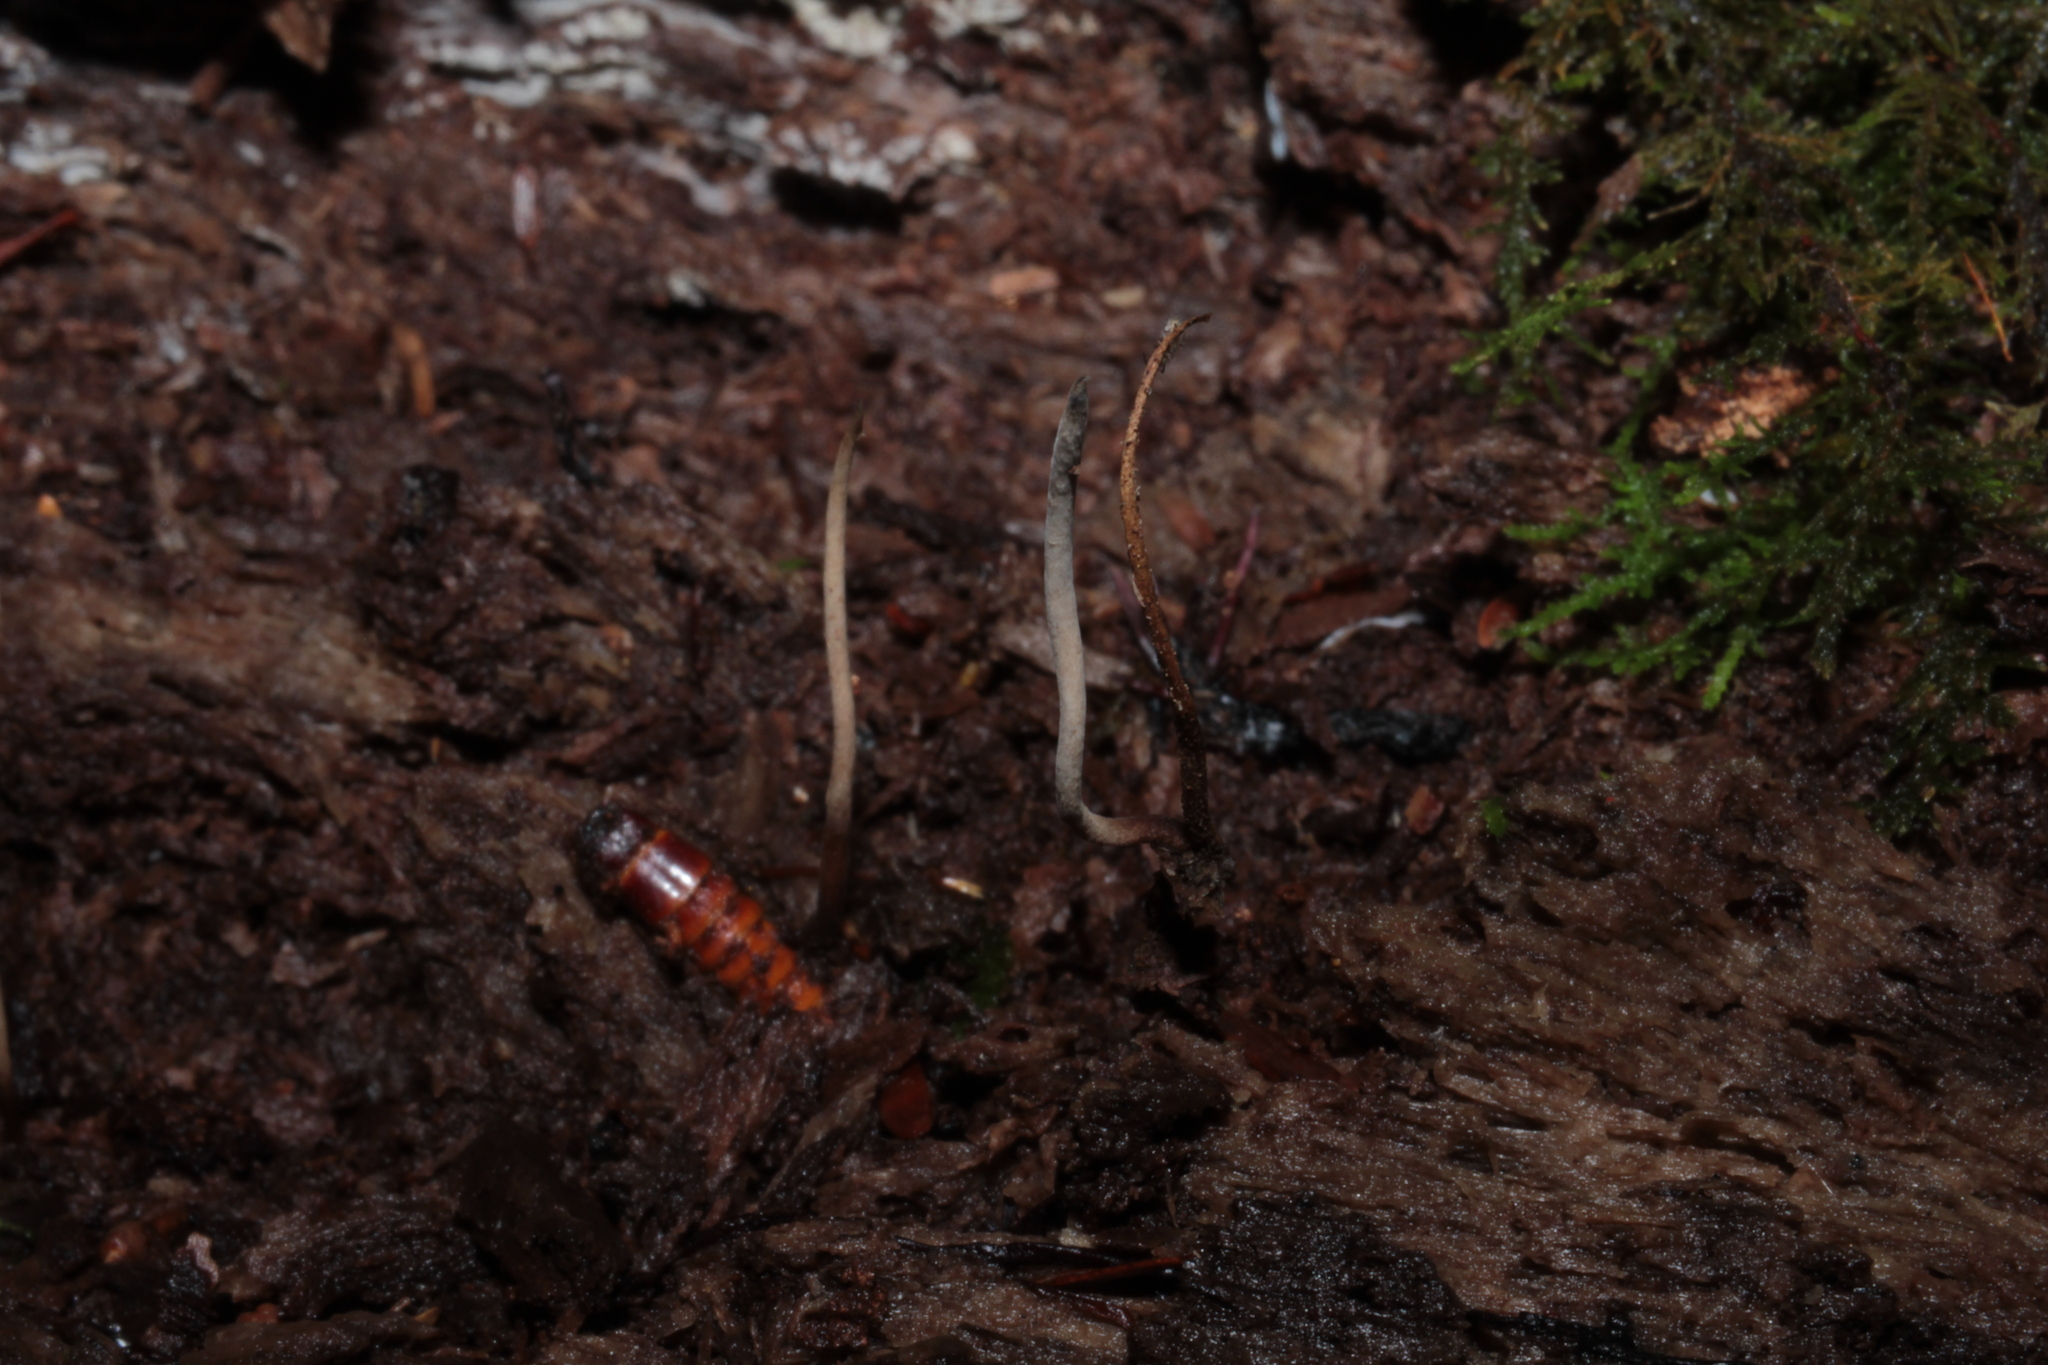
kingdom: Fungi
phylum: Ascomycota
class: Sordariomycetes
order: Hypocreales
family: Ophiocordycipitaceae
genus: Ophiocordyceps
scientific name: Ophiocordyceps stylophora
